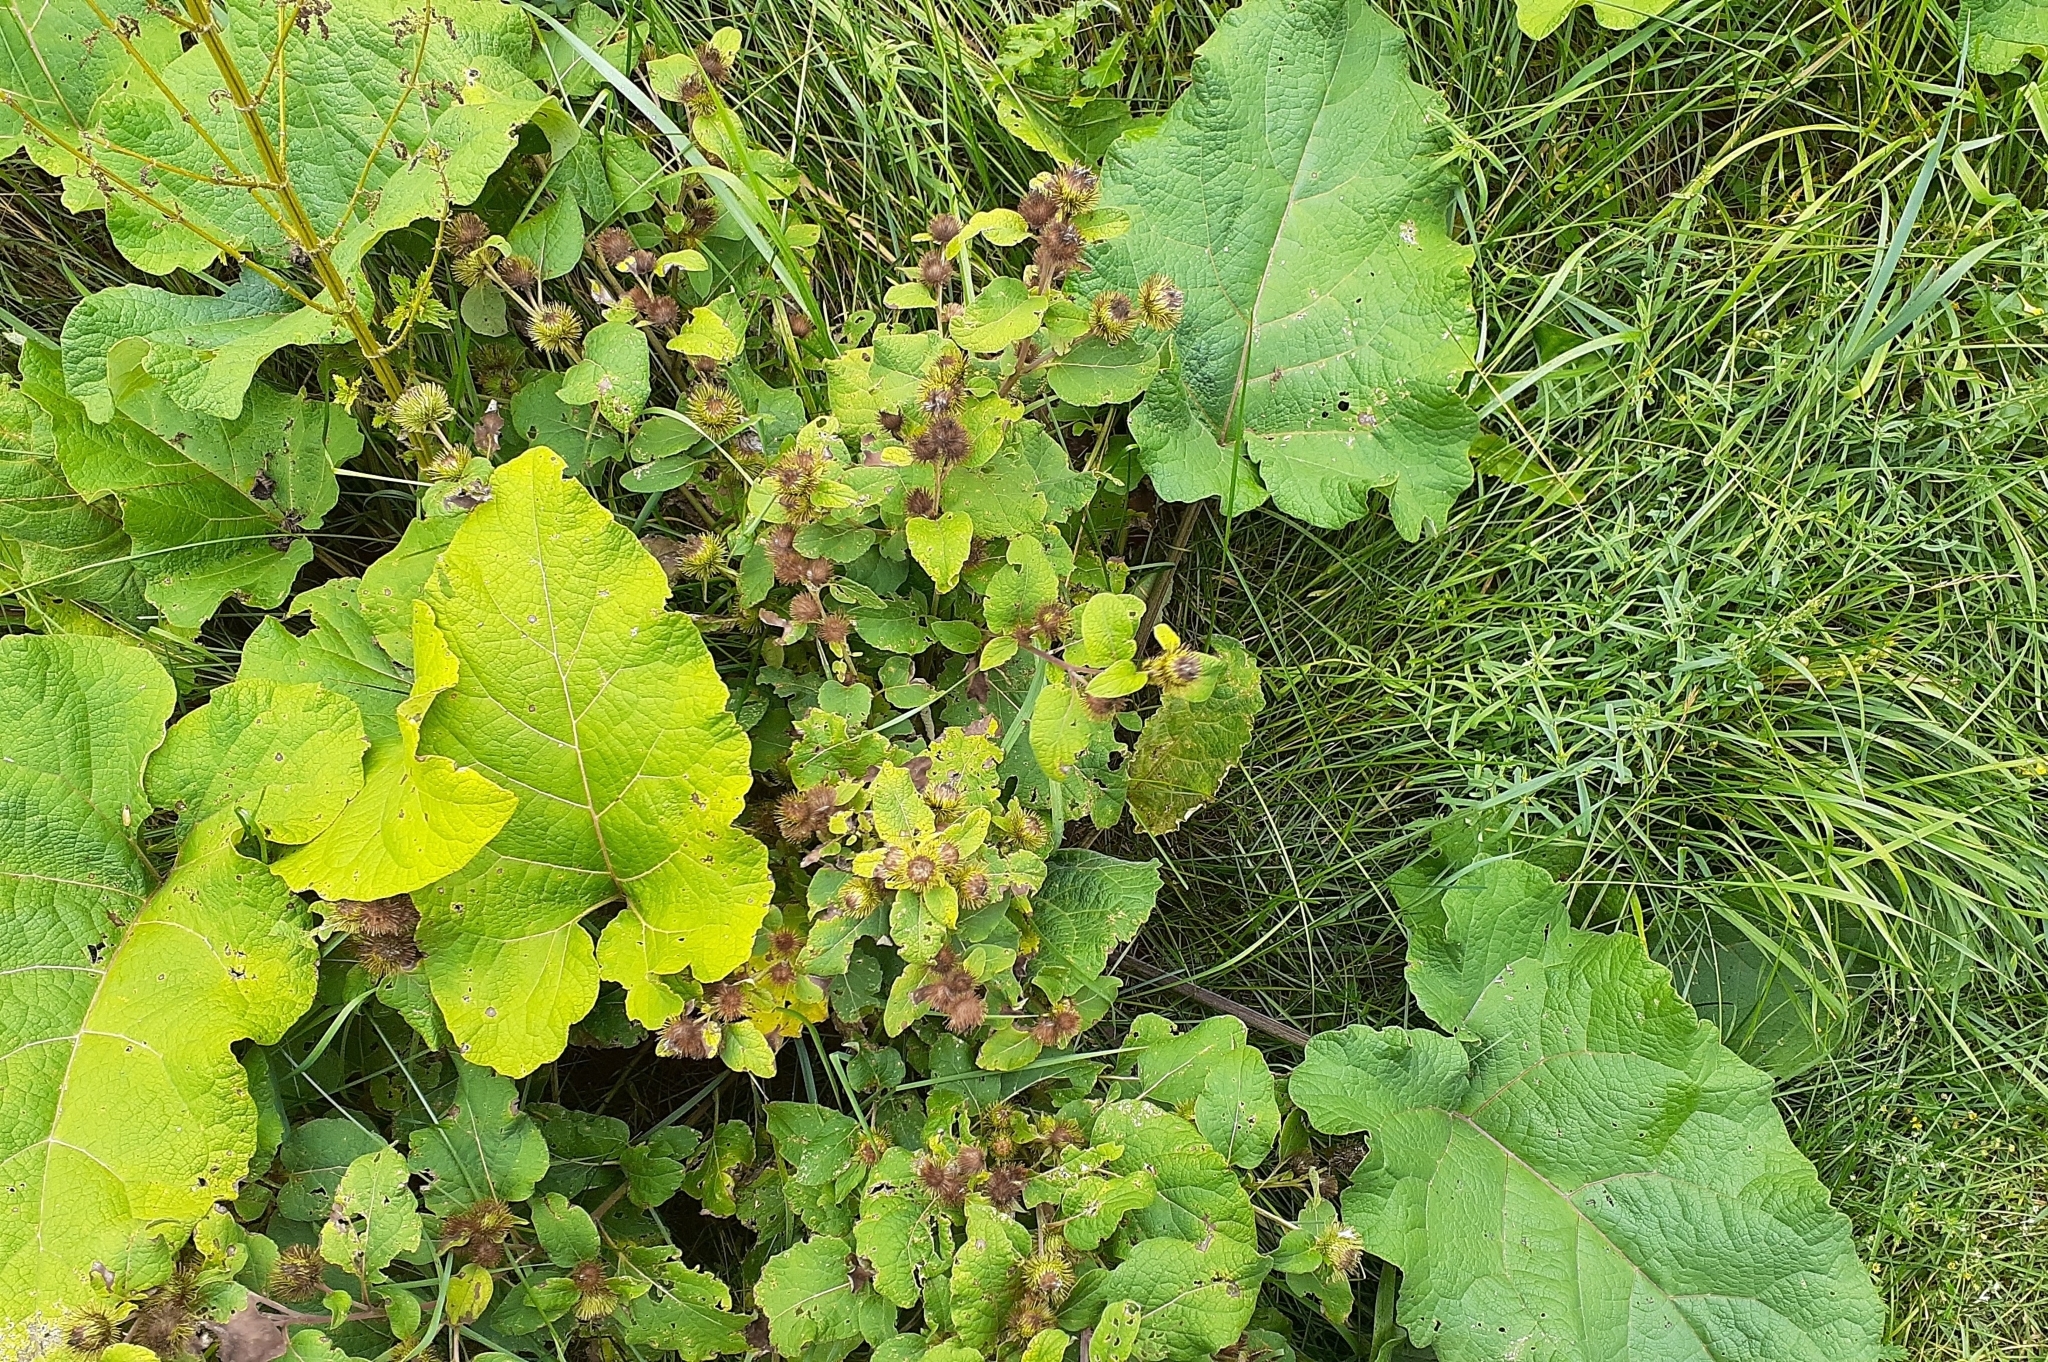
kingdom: Plantae
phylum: Tracheophyta
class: Magnoliopsida
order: Asterales
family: Asteraceae
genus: Arctium
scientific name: Arctium minus
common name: Lesser burdock
